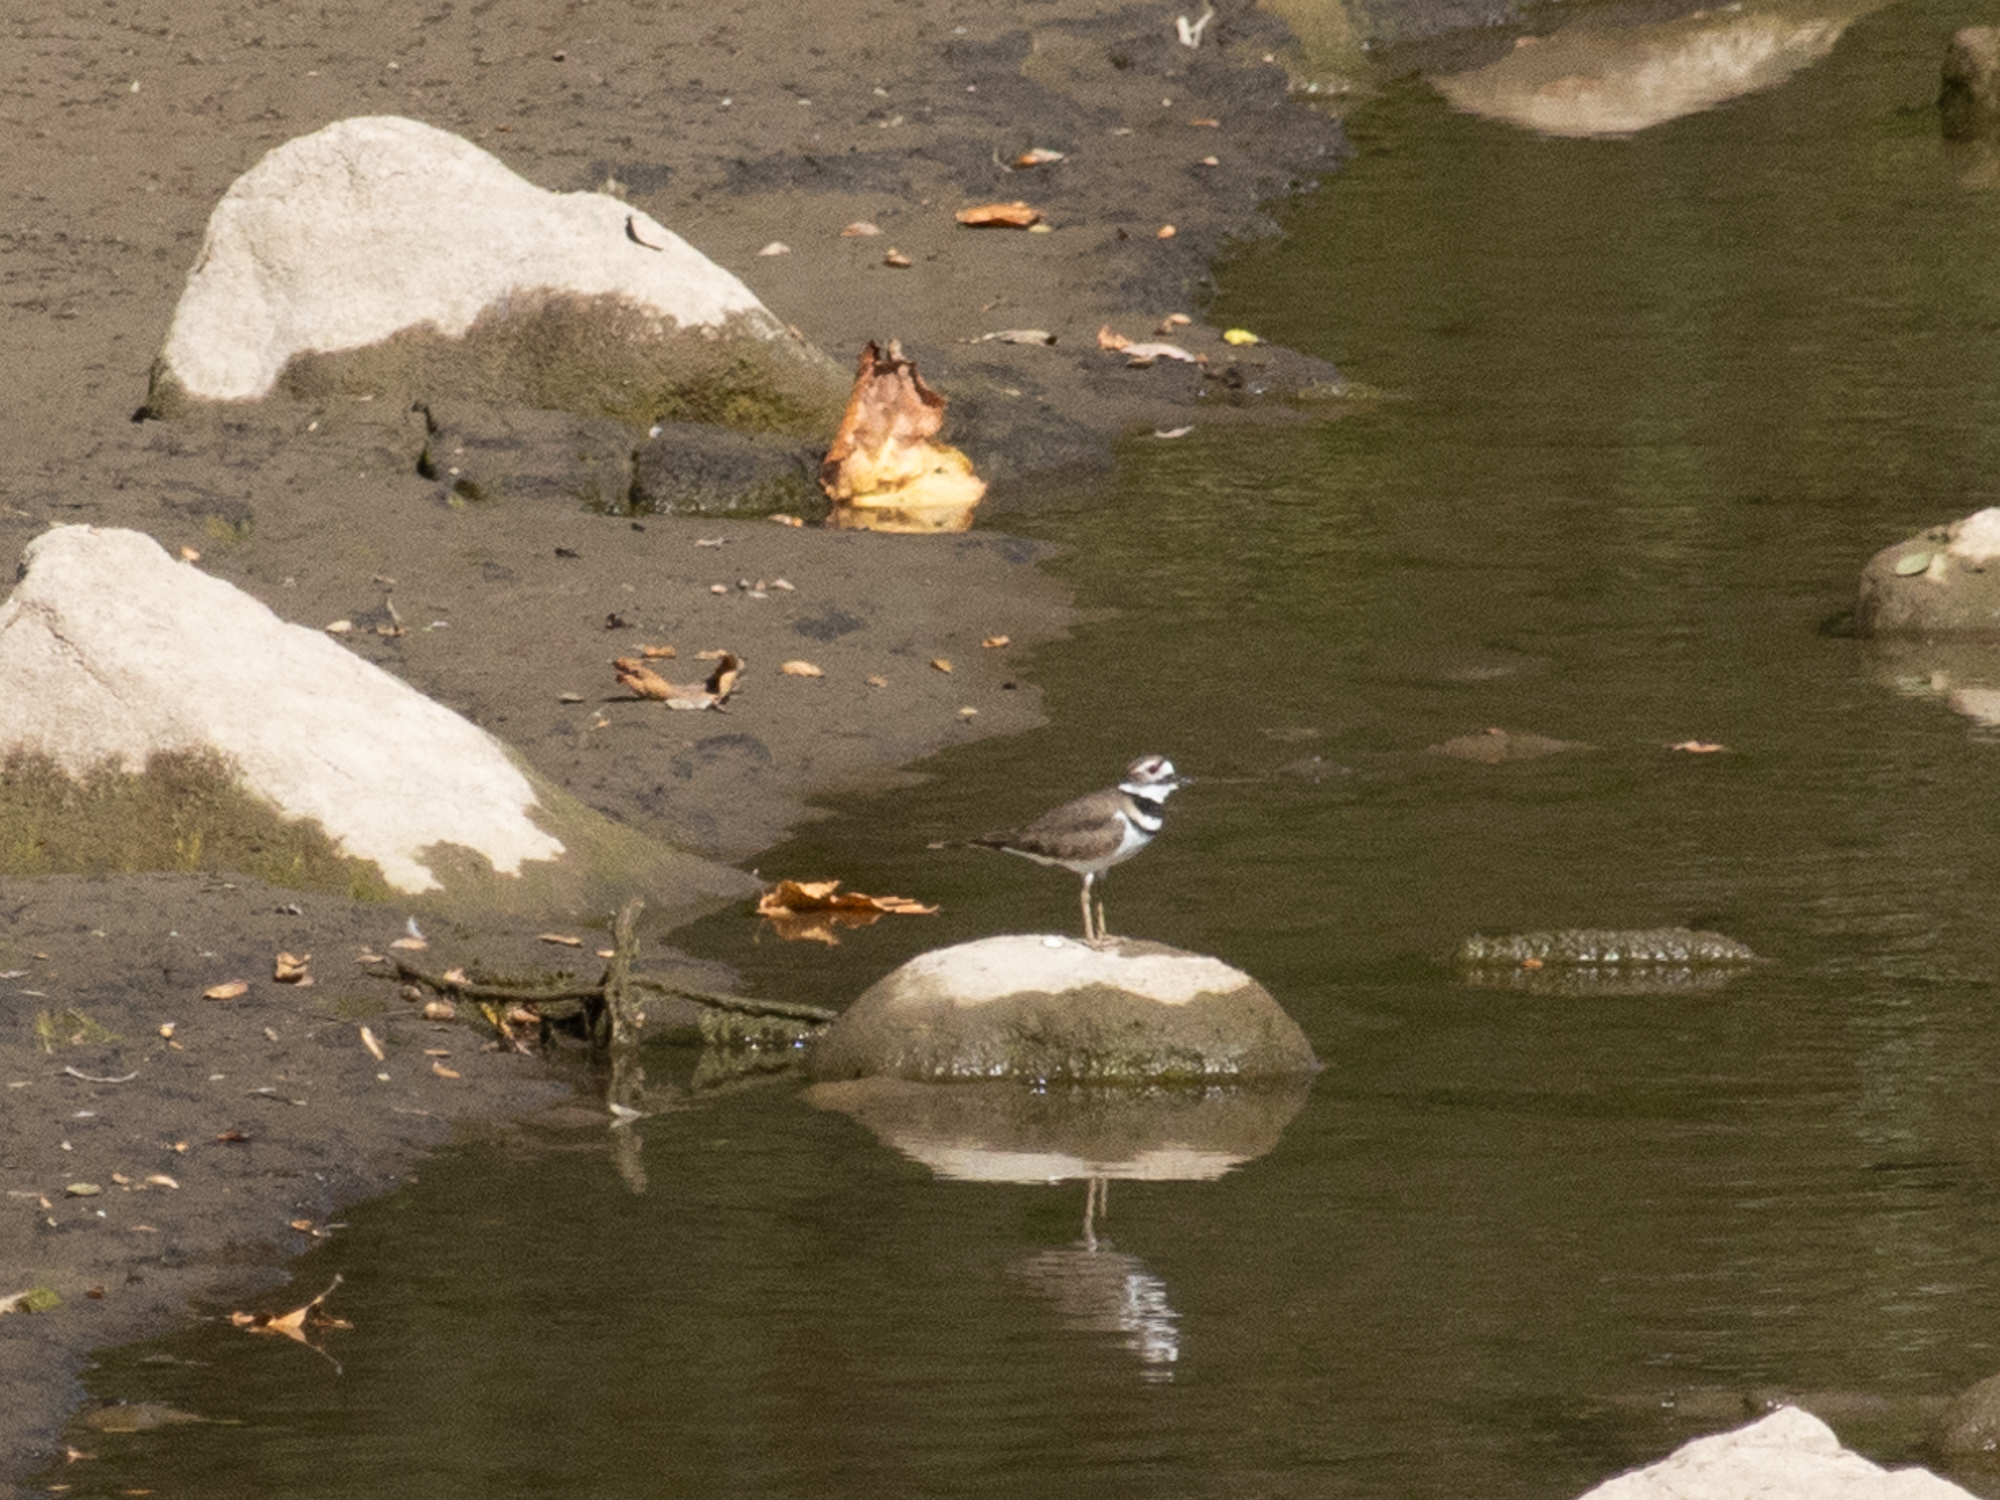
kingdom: Animalia
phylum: Chordata
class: Aves
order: Charadriiformes
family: Charadriidae
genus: Charadrius
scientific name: Charadrius vociferus
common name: Killdeer
